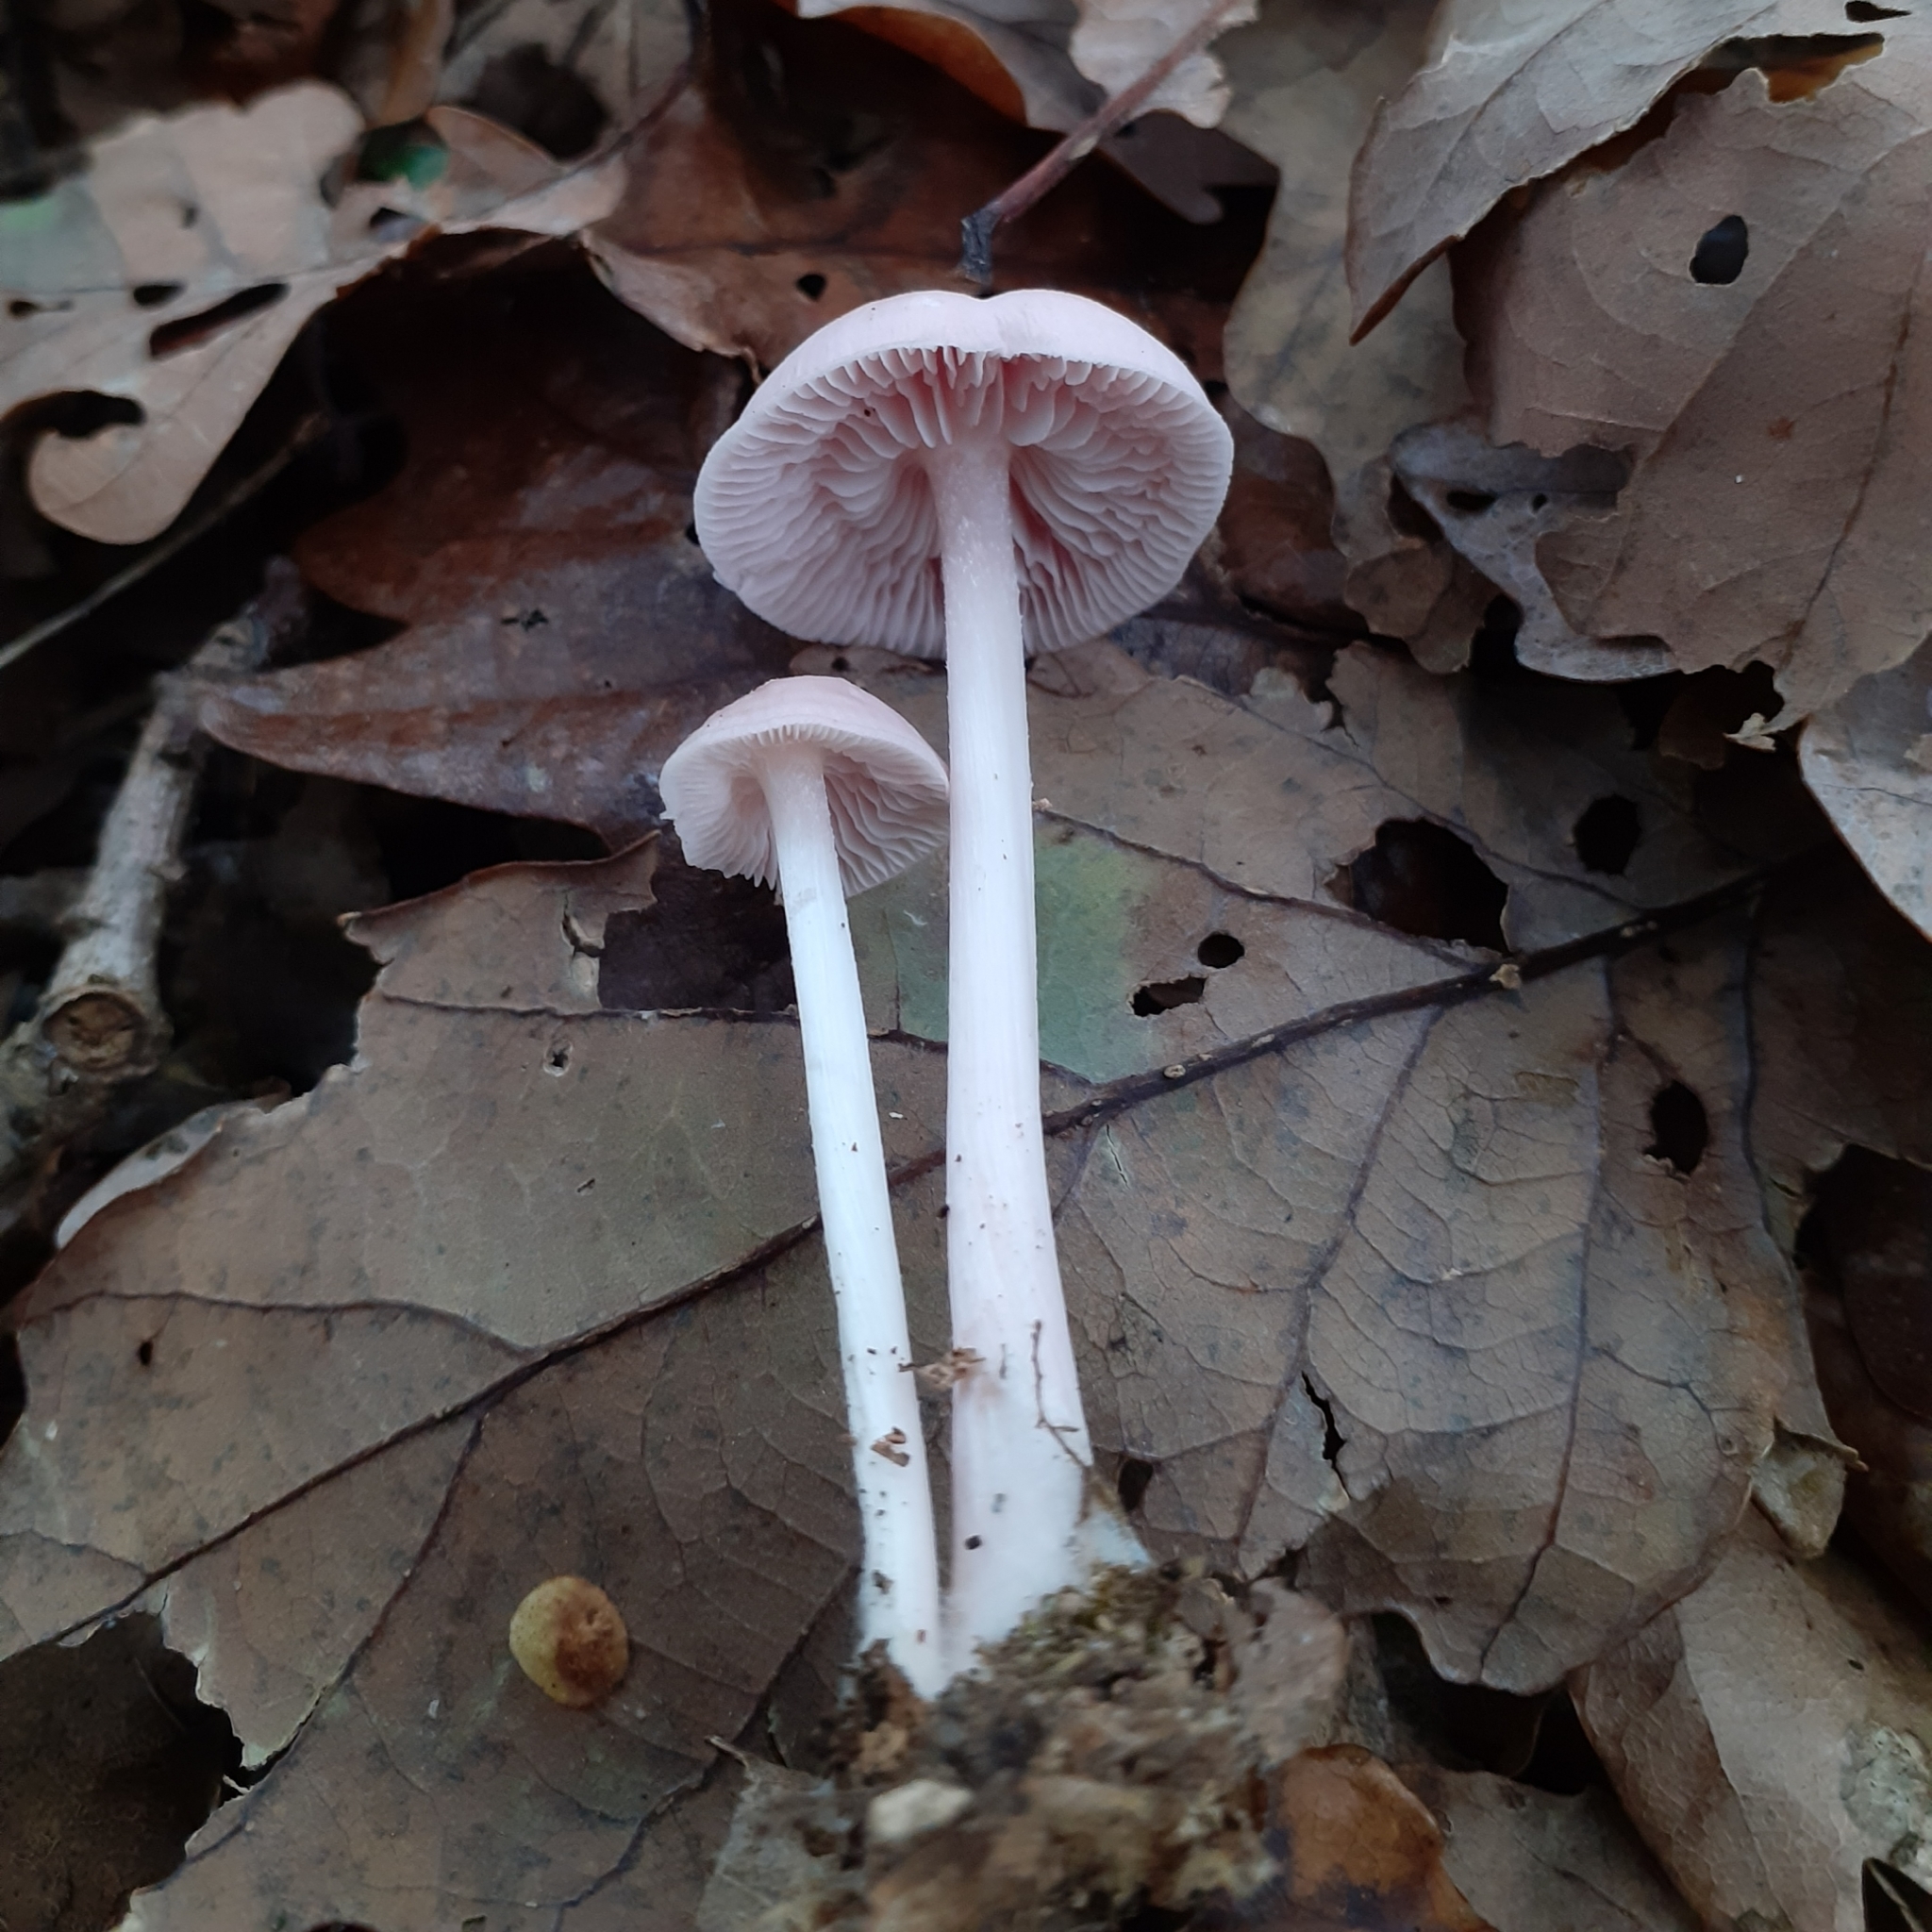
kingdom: Fungi
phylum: Basidiomycota
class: Agaricomycetes
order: Agaricales
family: Mycenaceae
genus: Mycena
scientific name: Mycena rosea
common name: Rosy bonnet
